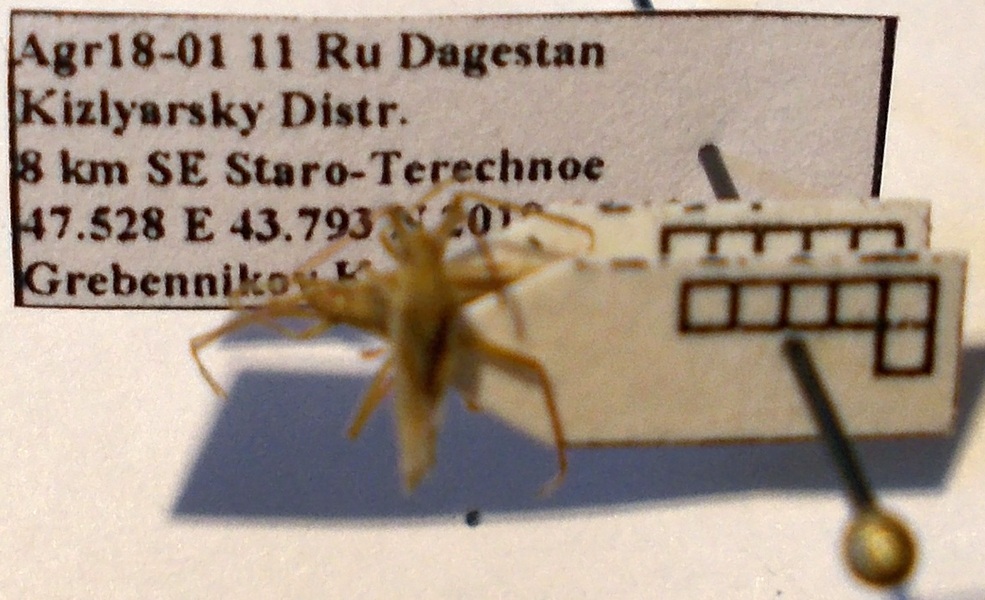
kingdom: Animalia
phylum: Arthropoda
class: Insecta
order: Hemiptera
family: Miridae
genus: Stenodema
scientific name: Stenodema calcarata
